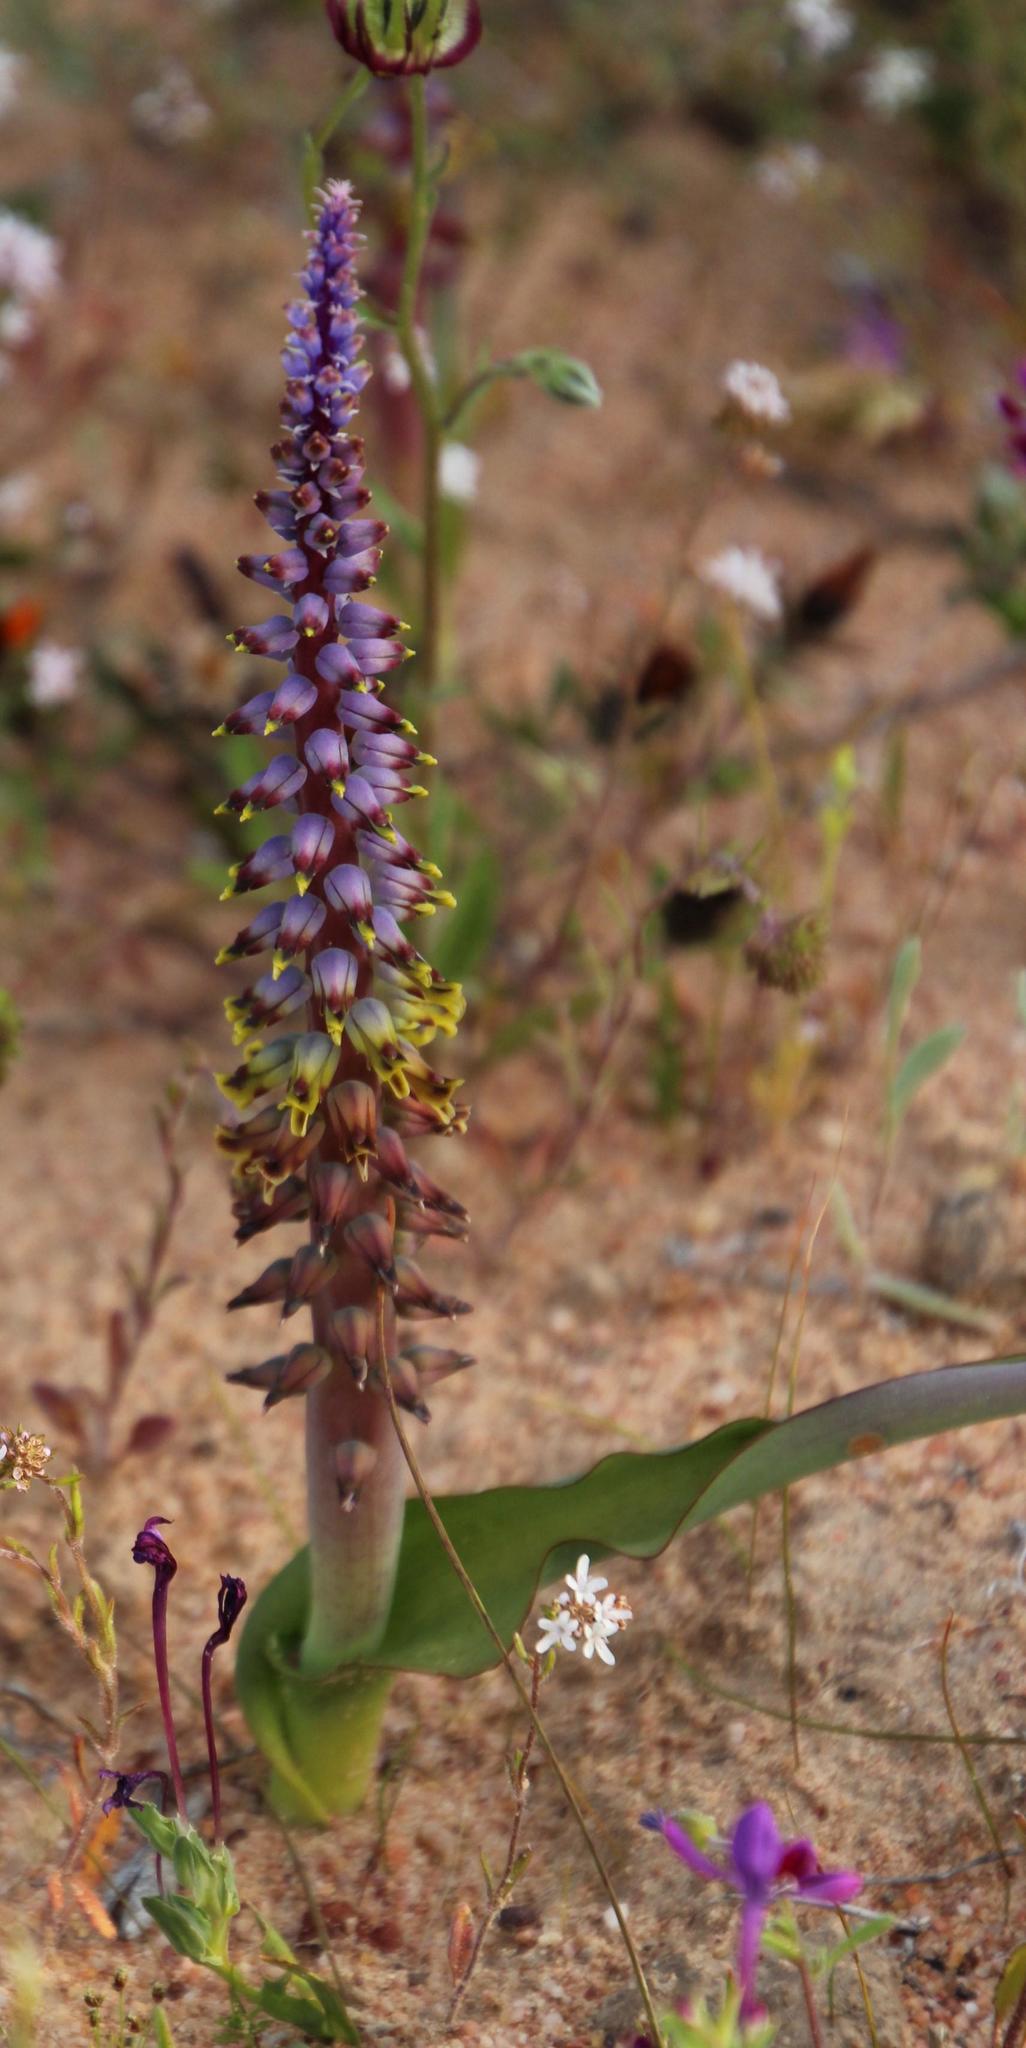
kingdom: Plantae
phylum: Tracheophyta
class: Liliopsida
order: Asparagales
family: Asparagaceae
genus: Lachenalia
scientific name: Lachenalia mutabilis
